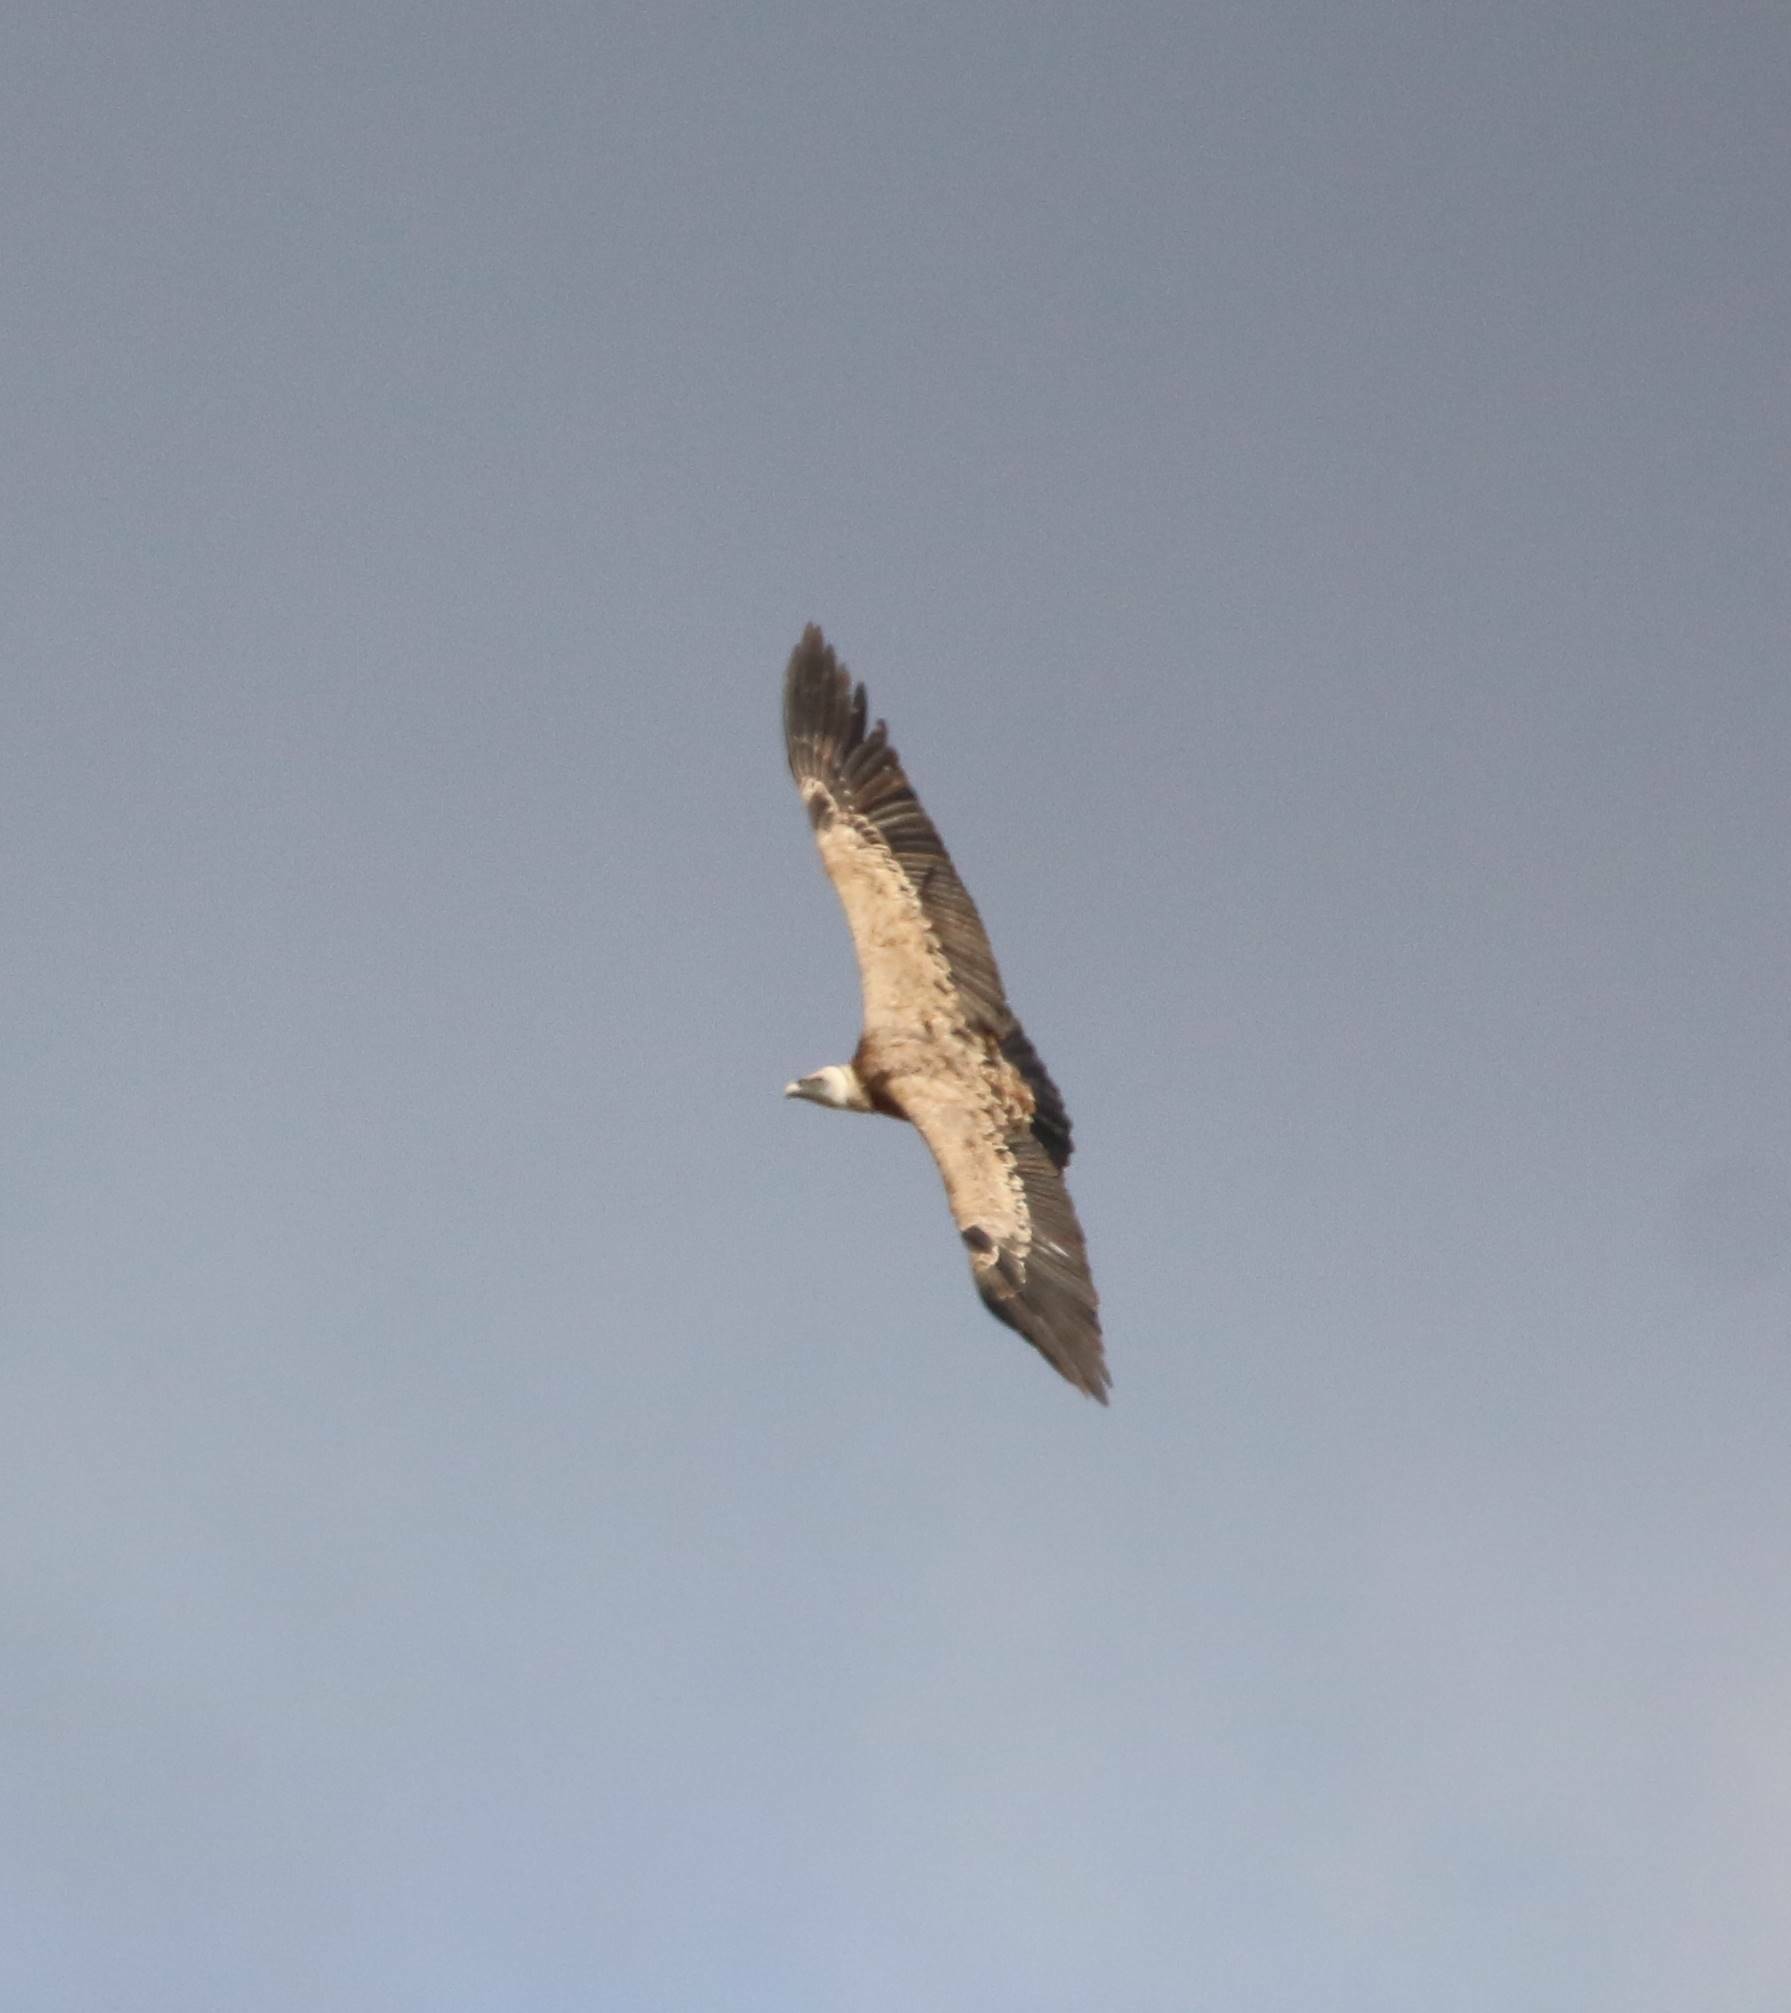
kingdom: Animalia
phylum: Chordata
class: Aves
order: Accipitriformes
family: Accipitridae
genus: Gyps
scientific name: Gyps fulvus
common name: Griffon vulture
